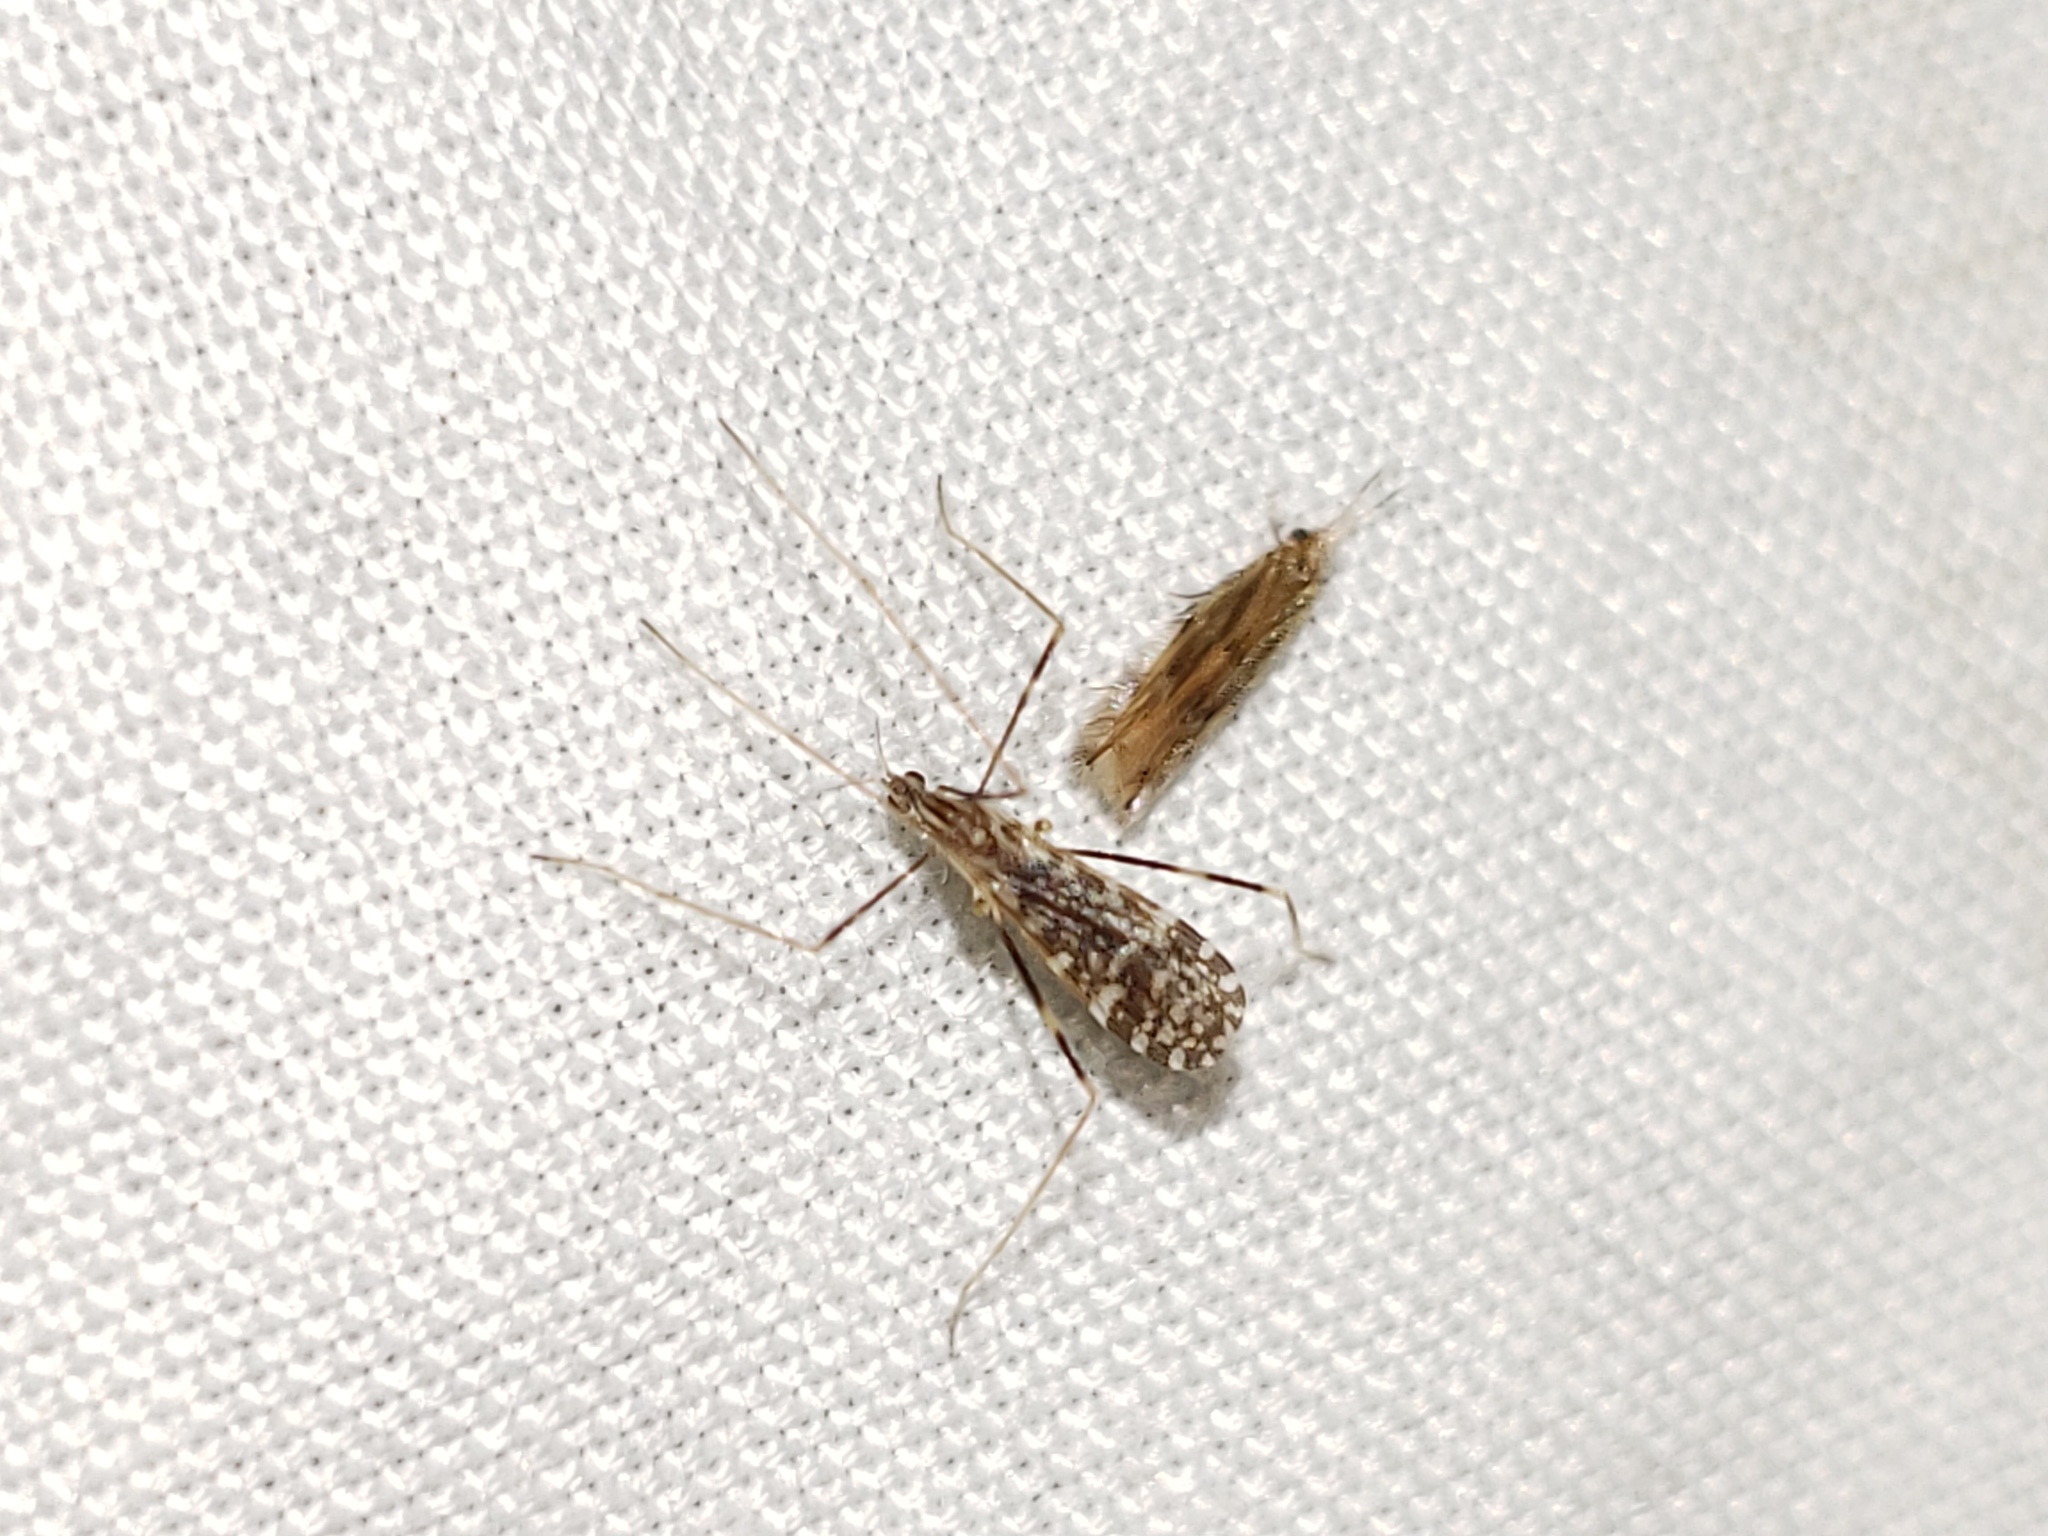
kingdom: Animalia
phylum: Arthropoda
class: Insecta
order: Diptera
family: Limoniidae
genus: Erioptera
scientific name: Erioptera caliptera
